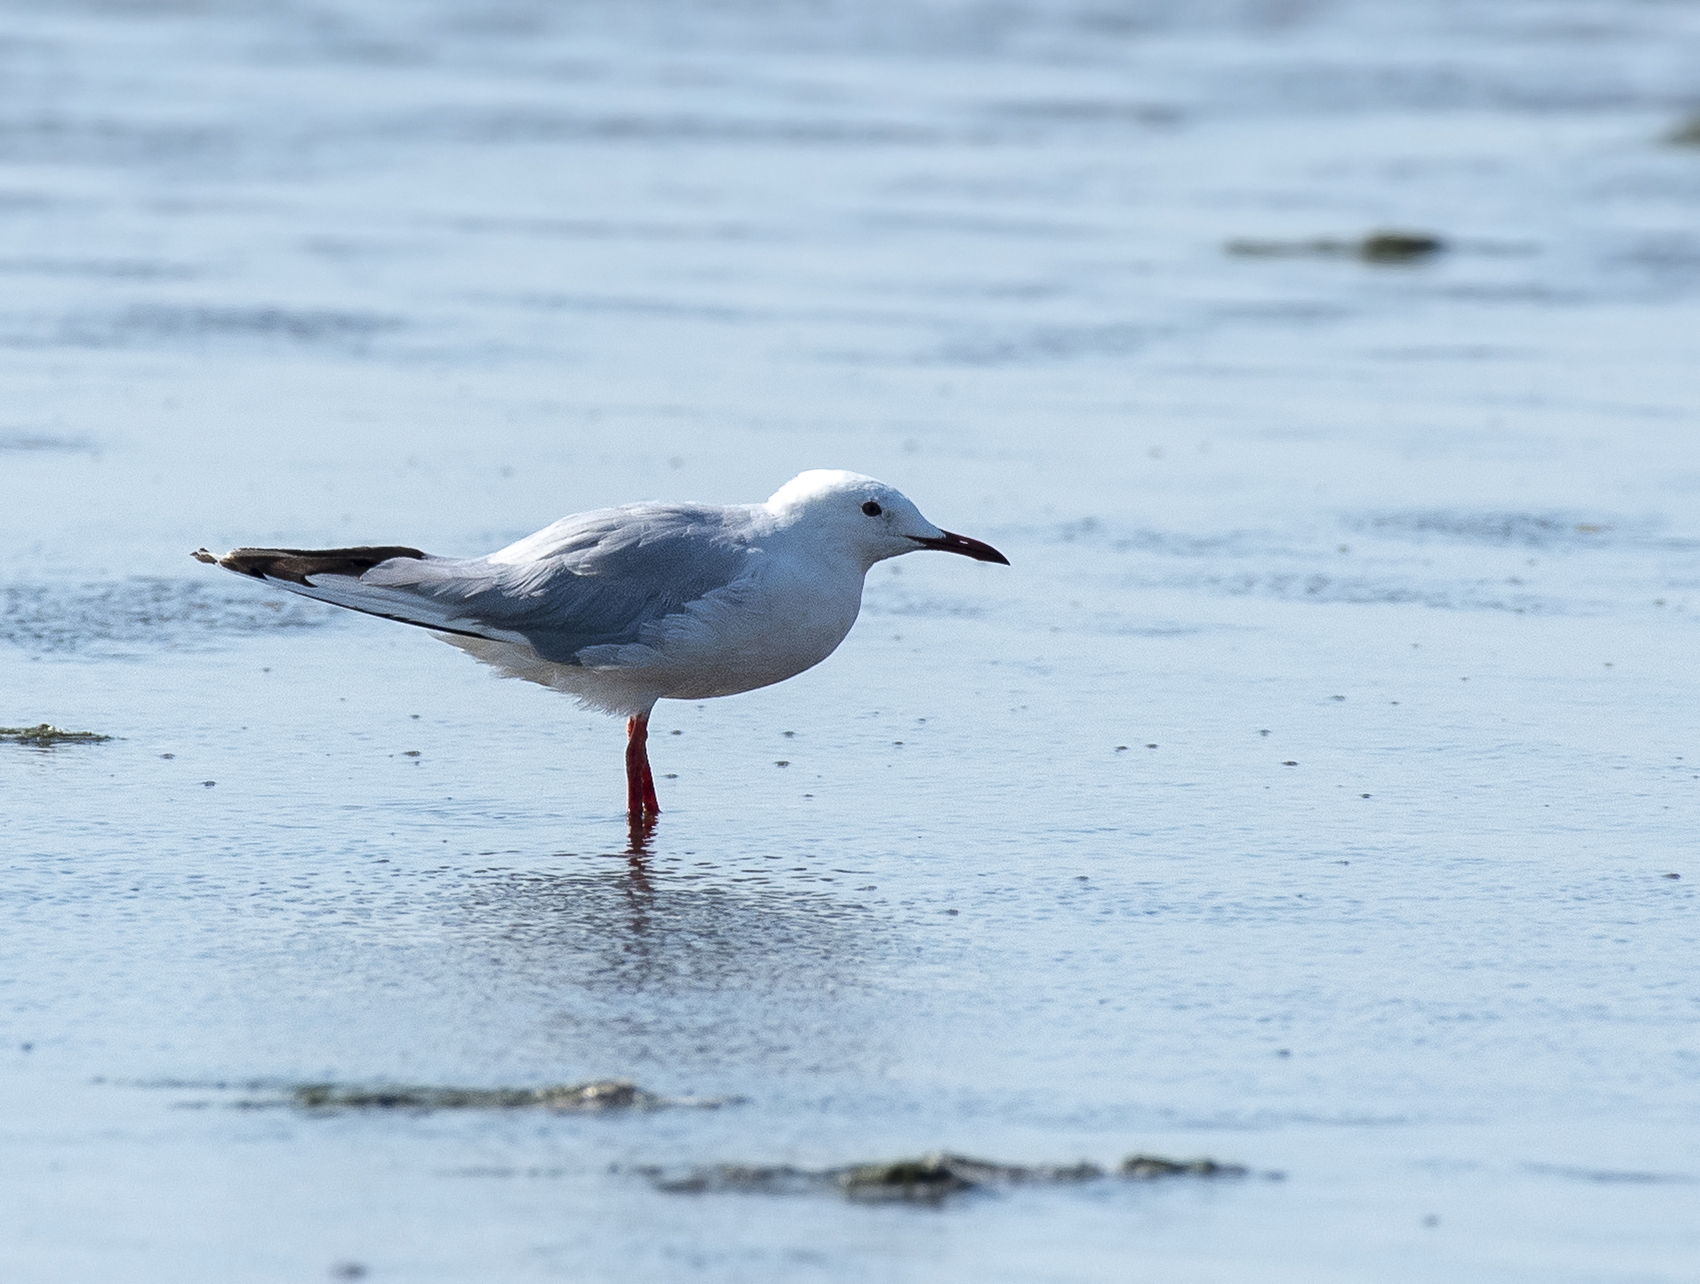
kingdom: Animalia
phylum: Chordata
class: Aves
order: Charadriiformes
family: Laridae
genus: Chroicocephalus
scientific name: Chroicocephalus genei
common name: Slender-billed gull
